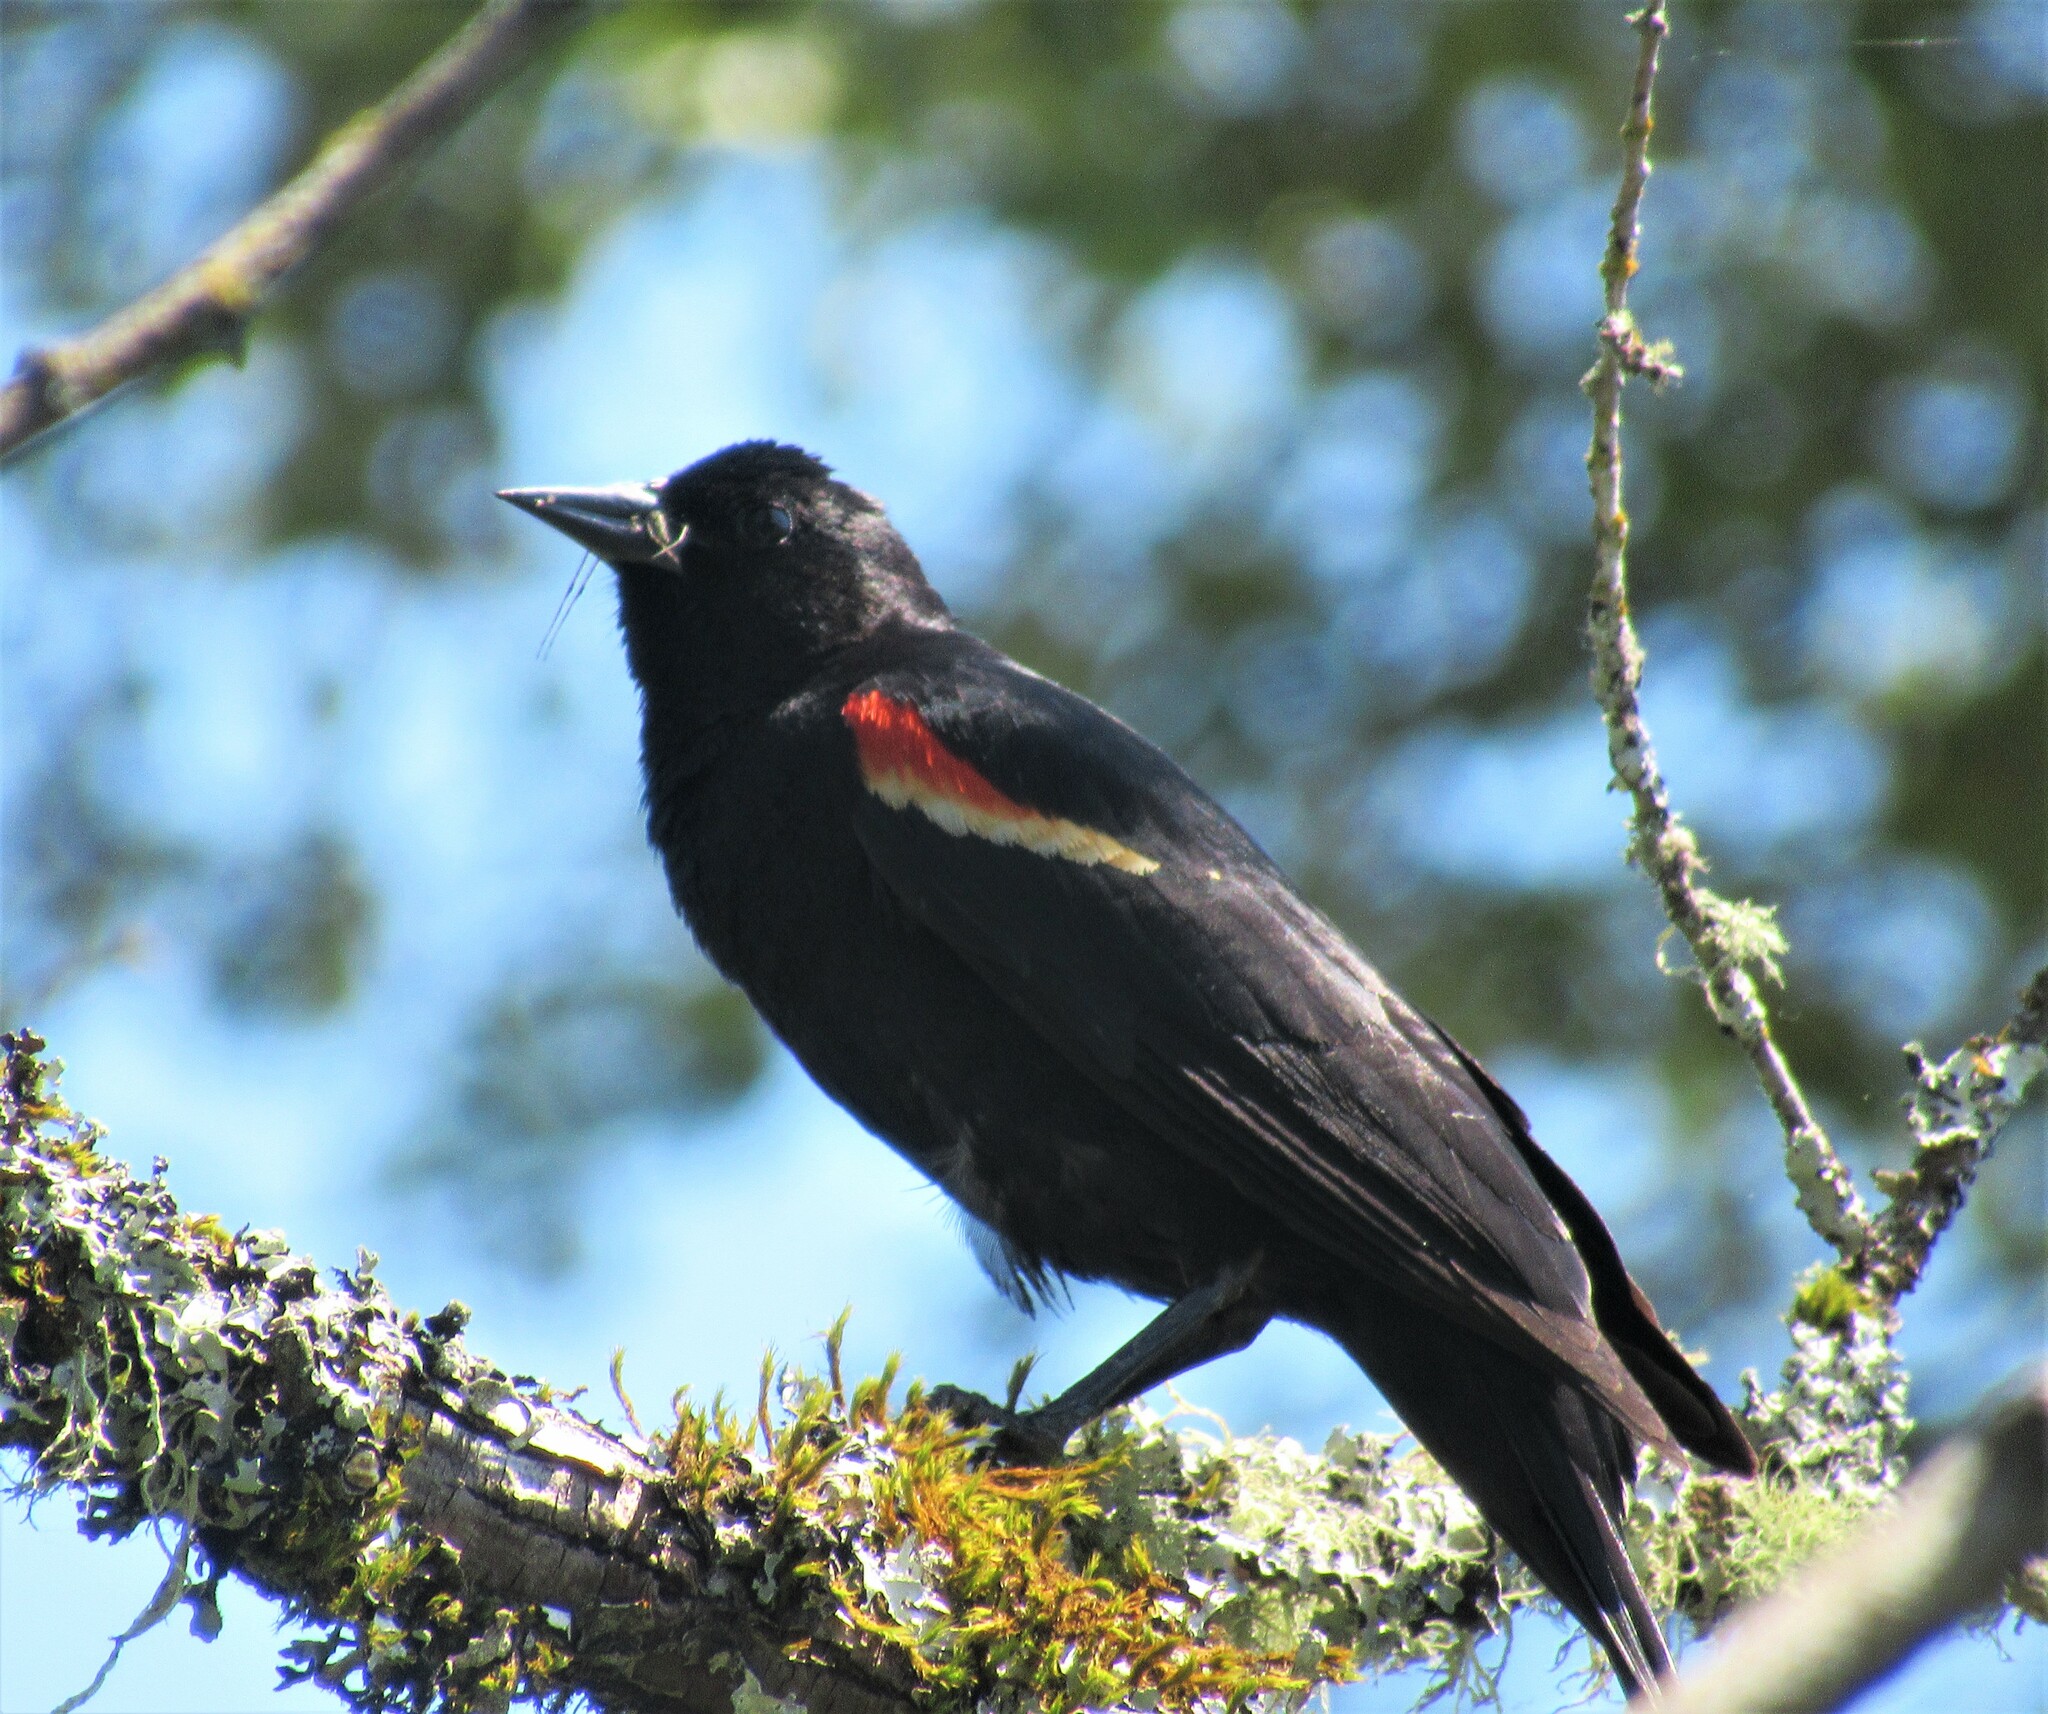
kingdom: Animalia
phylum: Chordata
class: Aves
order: Passeriformes
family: Icteridae
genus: Agelaius
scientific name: Agelaius phoeniceus
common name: Red-winged blackbird
